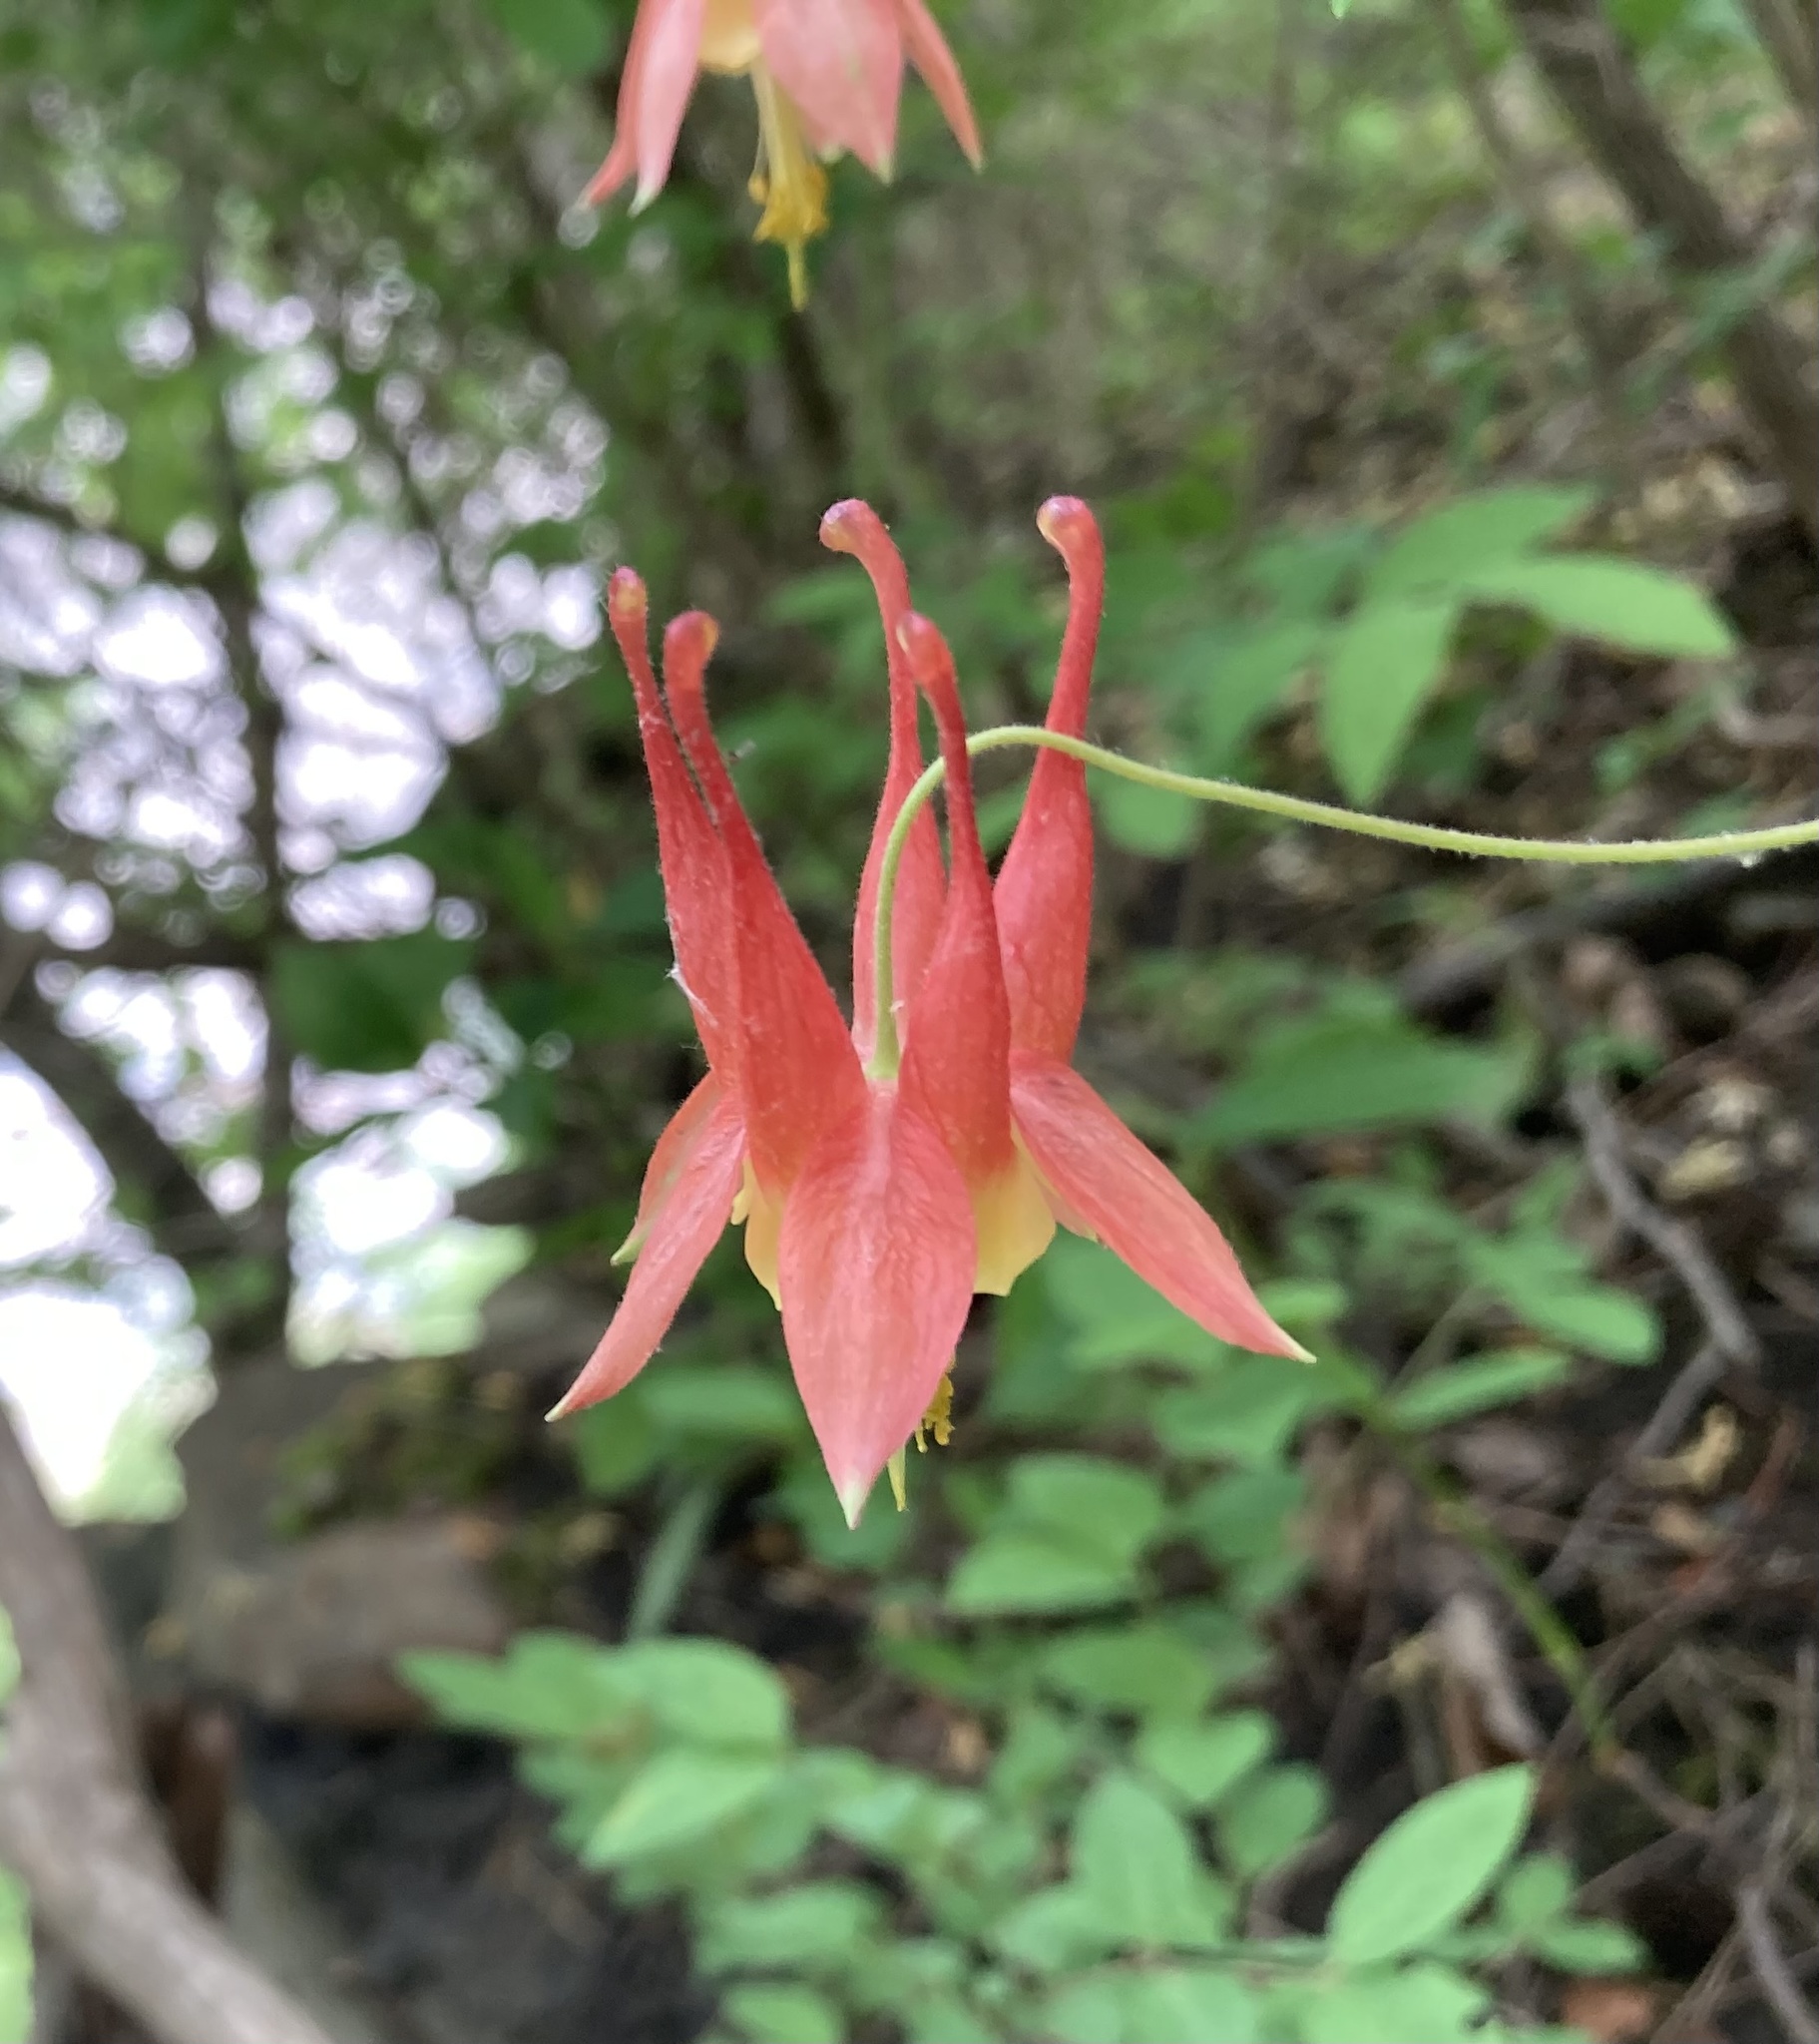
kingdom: Plantae
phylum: Tracheophyta
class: Magnoliopsida
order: Ranunculales
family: Ranunculaceae
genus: Aquilegia
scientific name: Aquilegia canadensis
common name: American columbine
